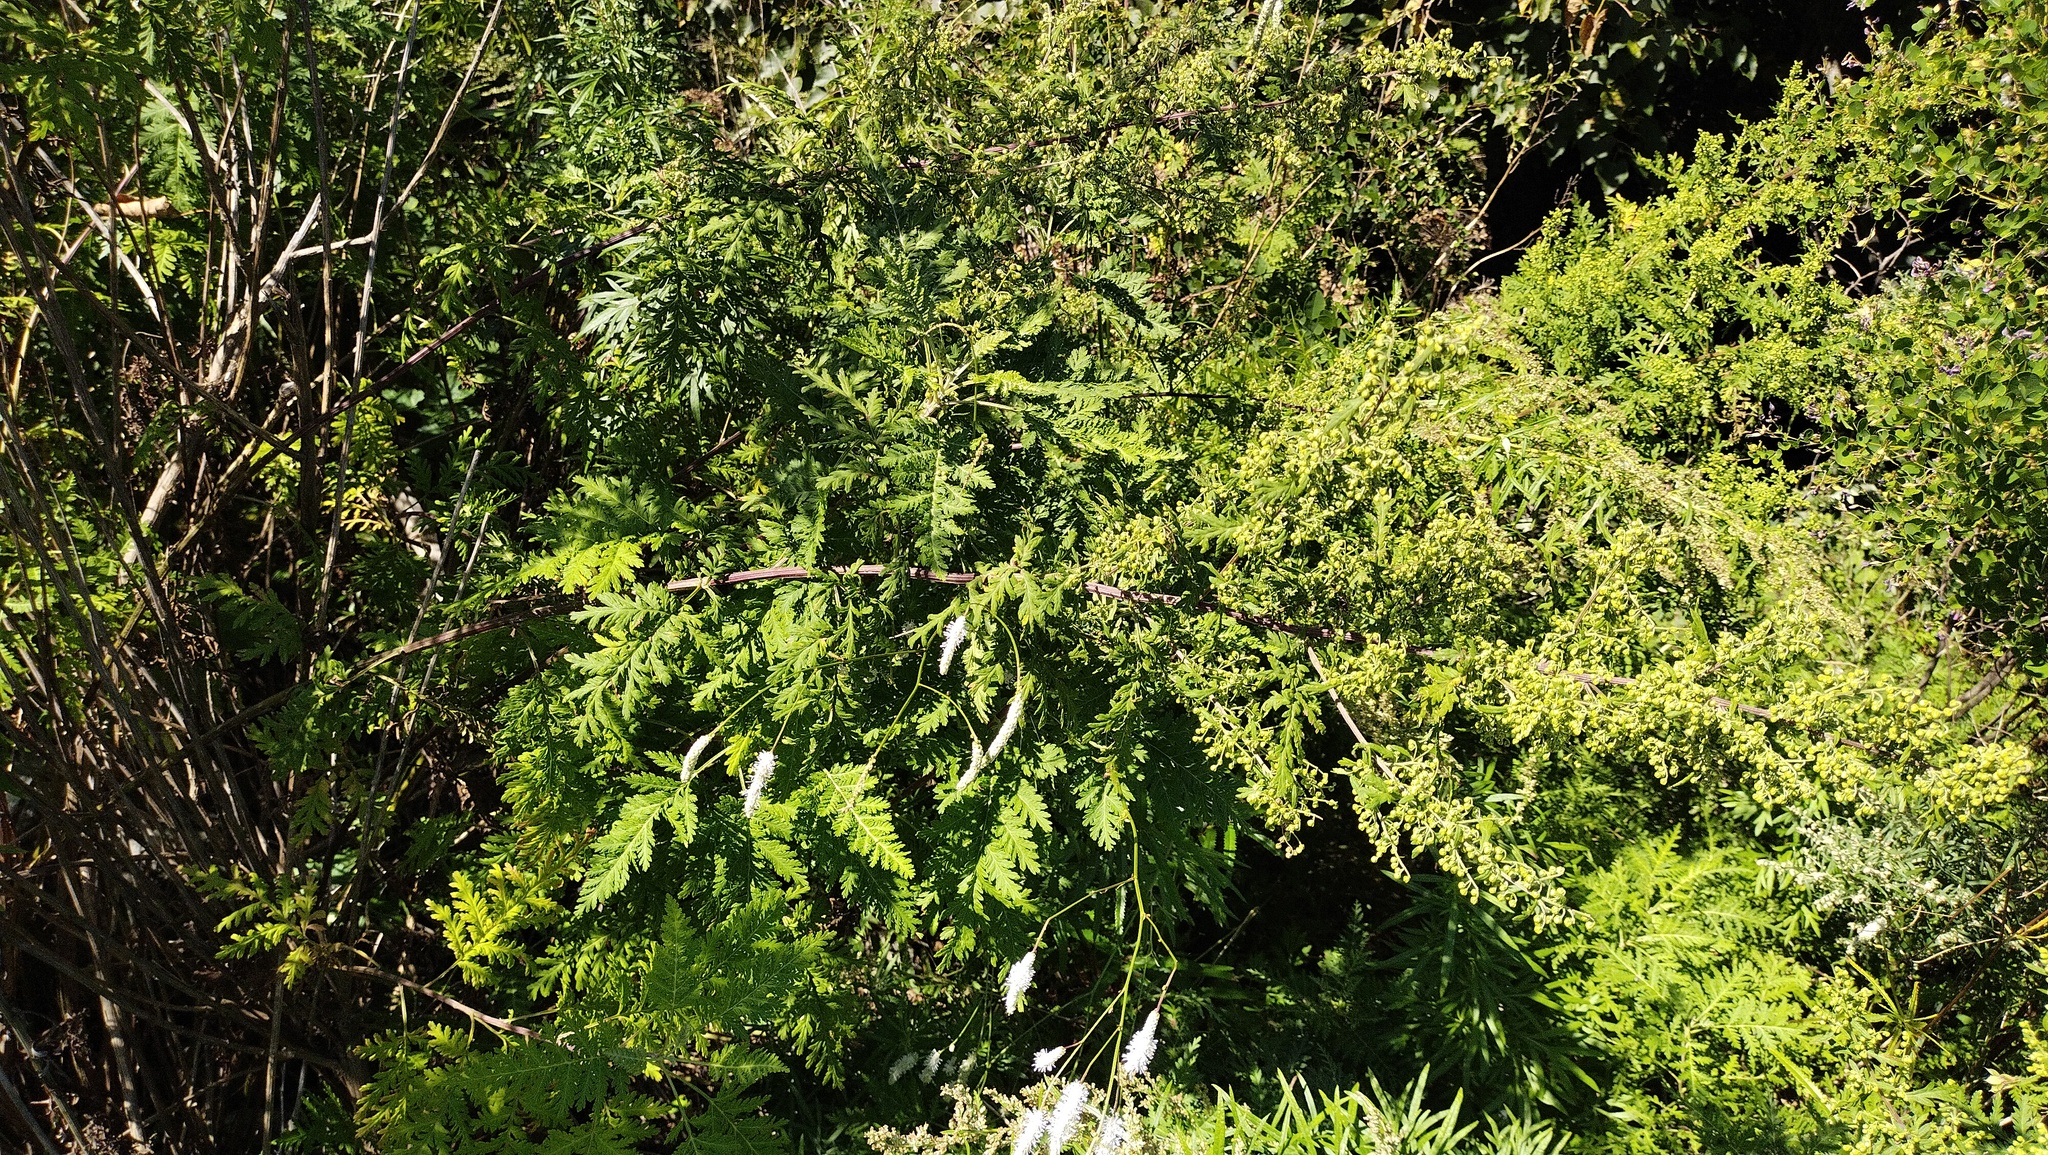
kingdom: Plantae
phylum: Tracheophyta
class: Magnoliopsida
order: Asterales
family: Asteraceae
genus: Artemisia
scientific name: Artemisia gmelinii
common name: Gmelin's wormwood
